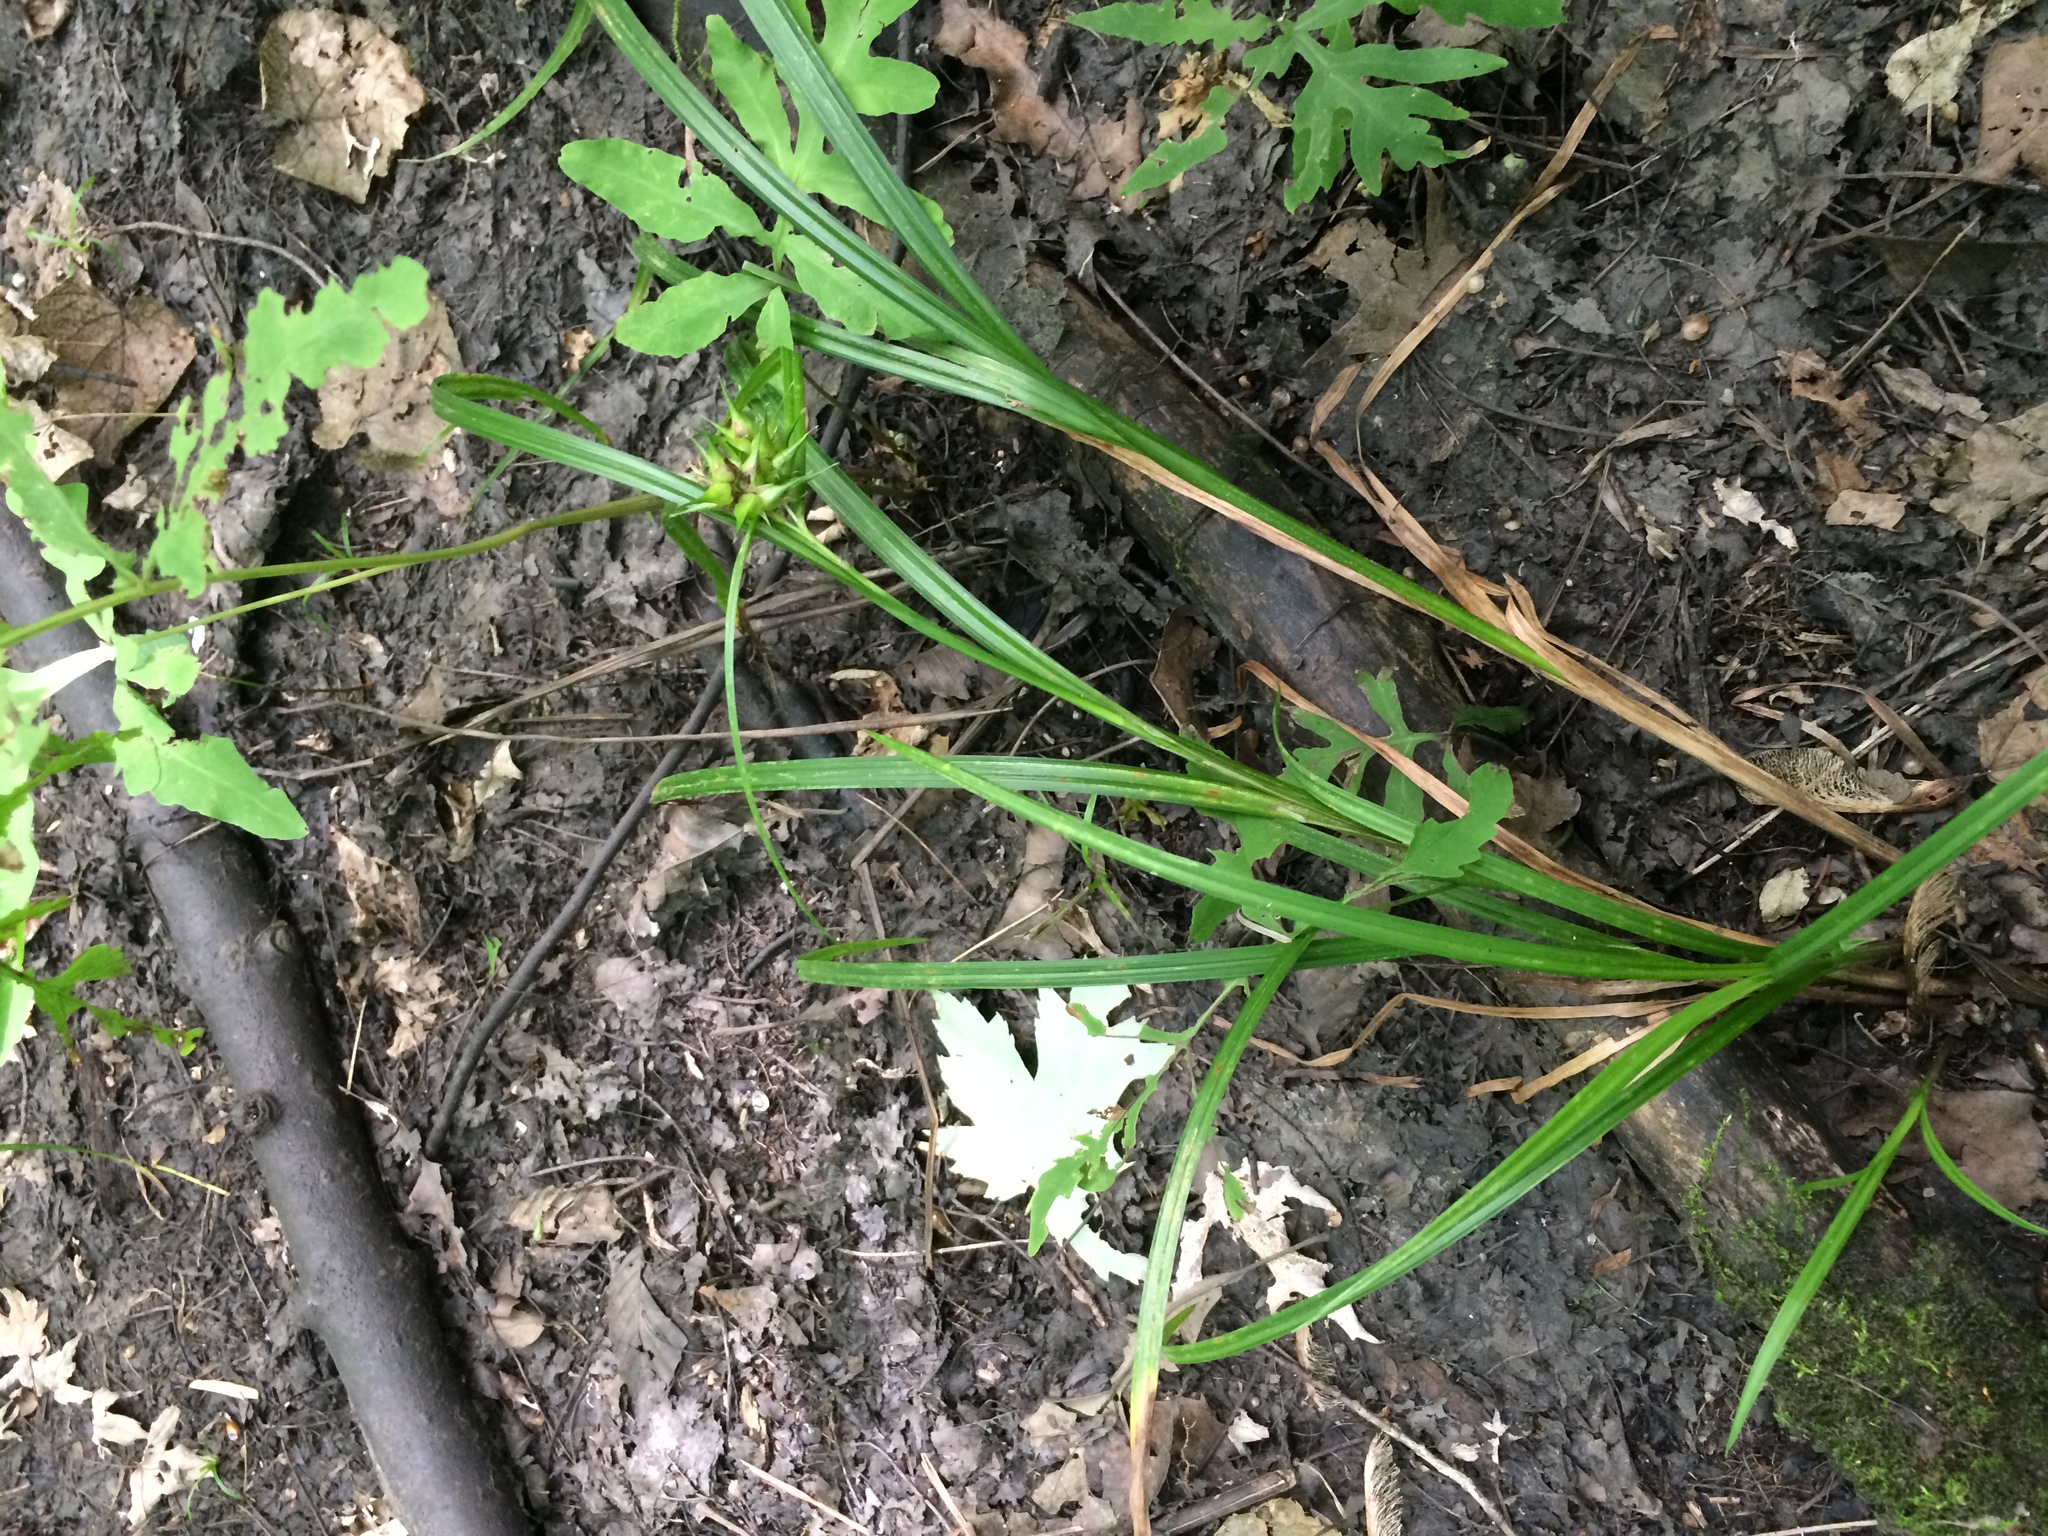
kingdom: Plantae
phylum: Tracheophyta
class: Liliopsida
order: Poales
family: Cyperaceae
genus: Carex
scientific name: Carex lupulina
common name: Hop sedge
